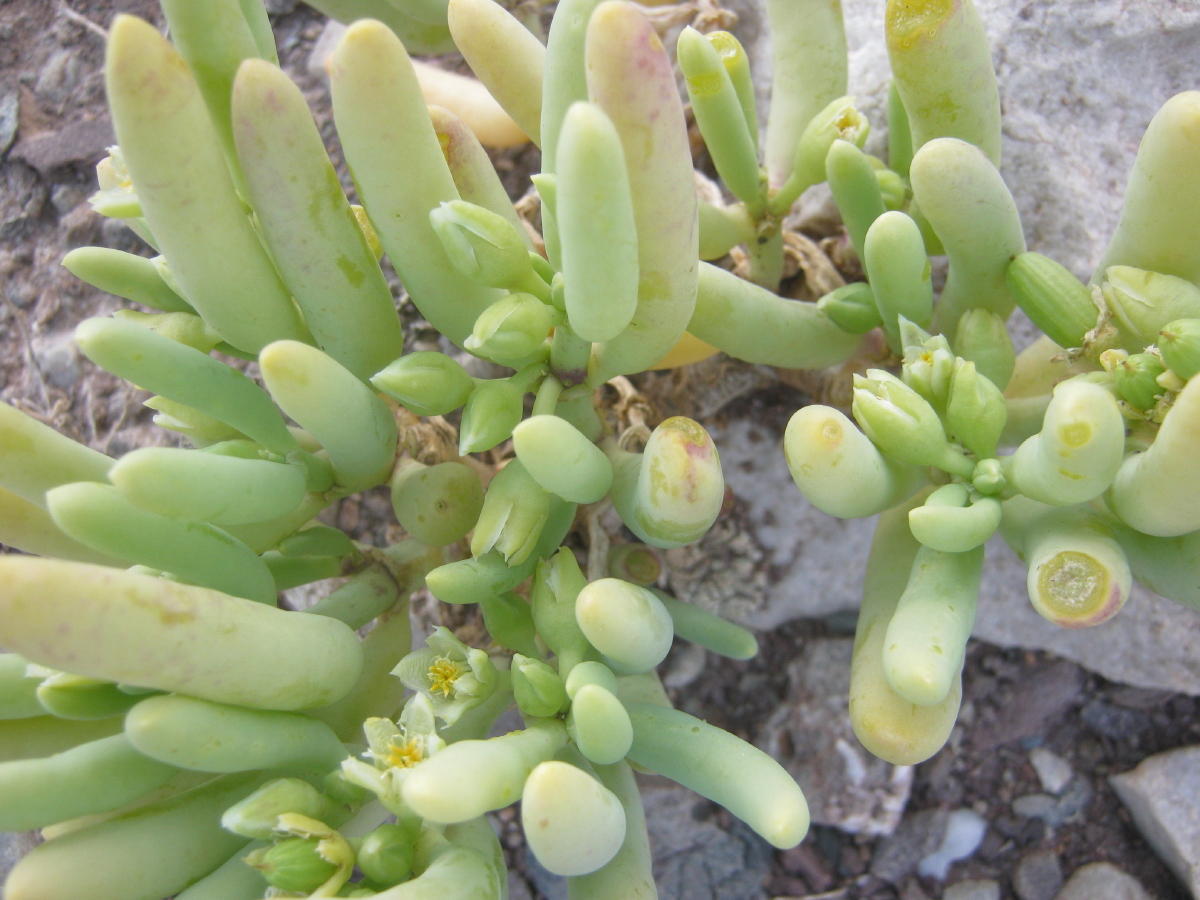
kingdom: Plantae
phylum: Tracheophyta
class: Magnoliopsida
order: Zygophyllales
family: Zygophyllaceae
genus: Augea
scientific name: Augea capensis
